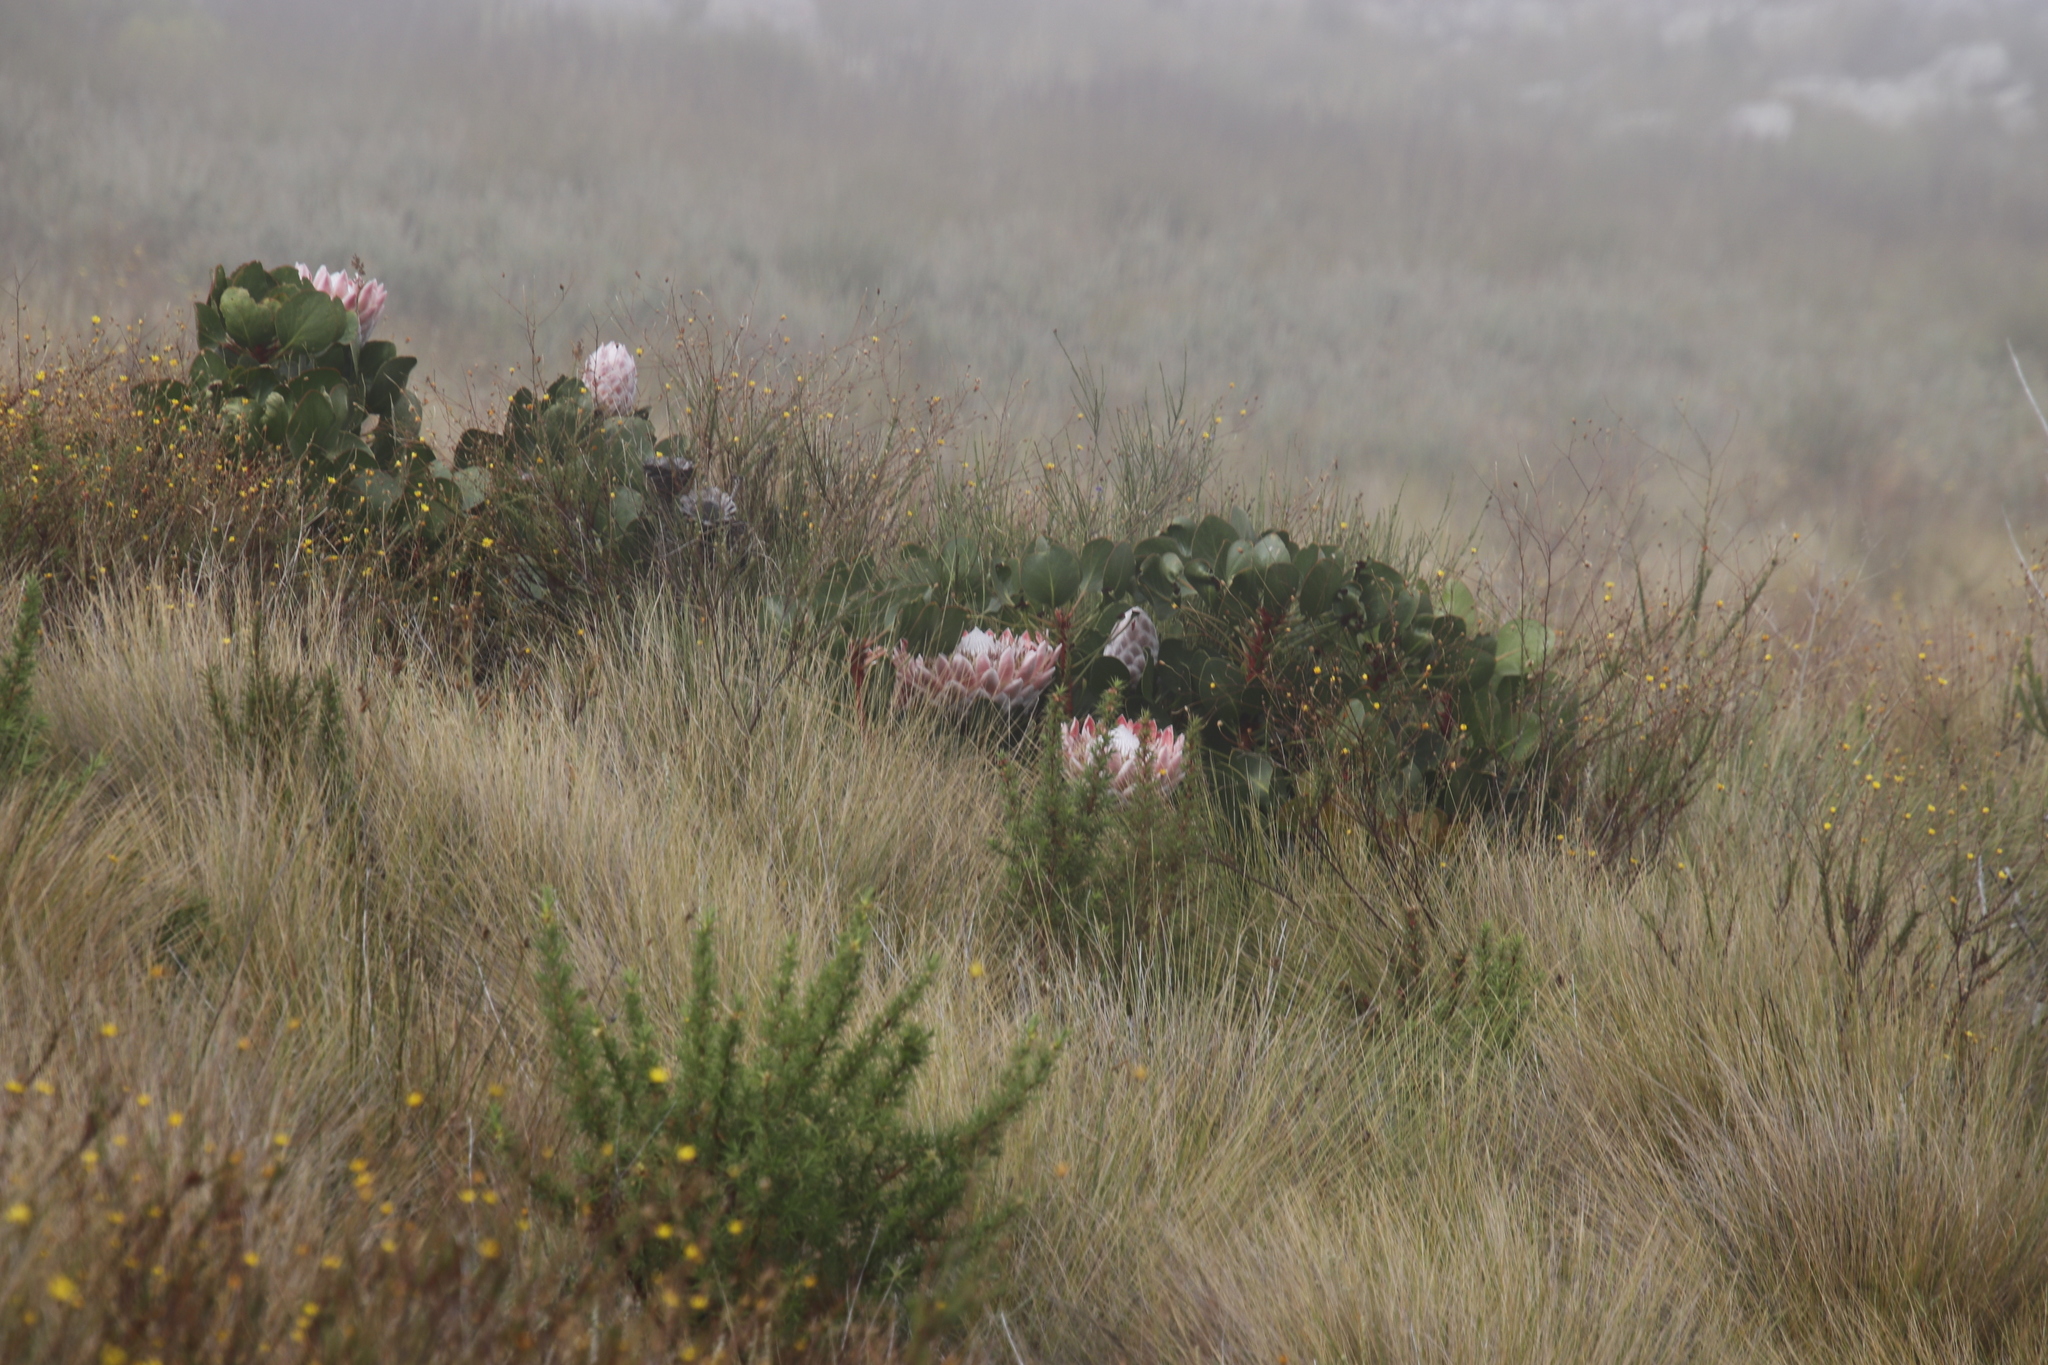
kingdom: Plantae
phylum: Tracheophyta
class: Magnoliopsida
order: Proteales
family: Proteaceae
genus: Protea
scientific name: Protea cynaroides
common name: King protea
